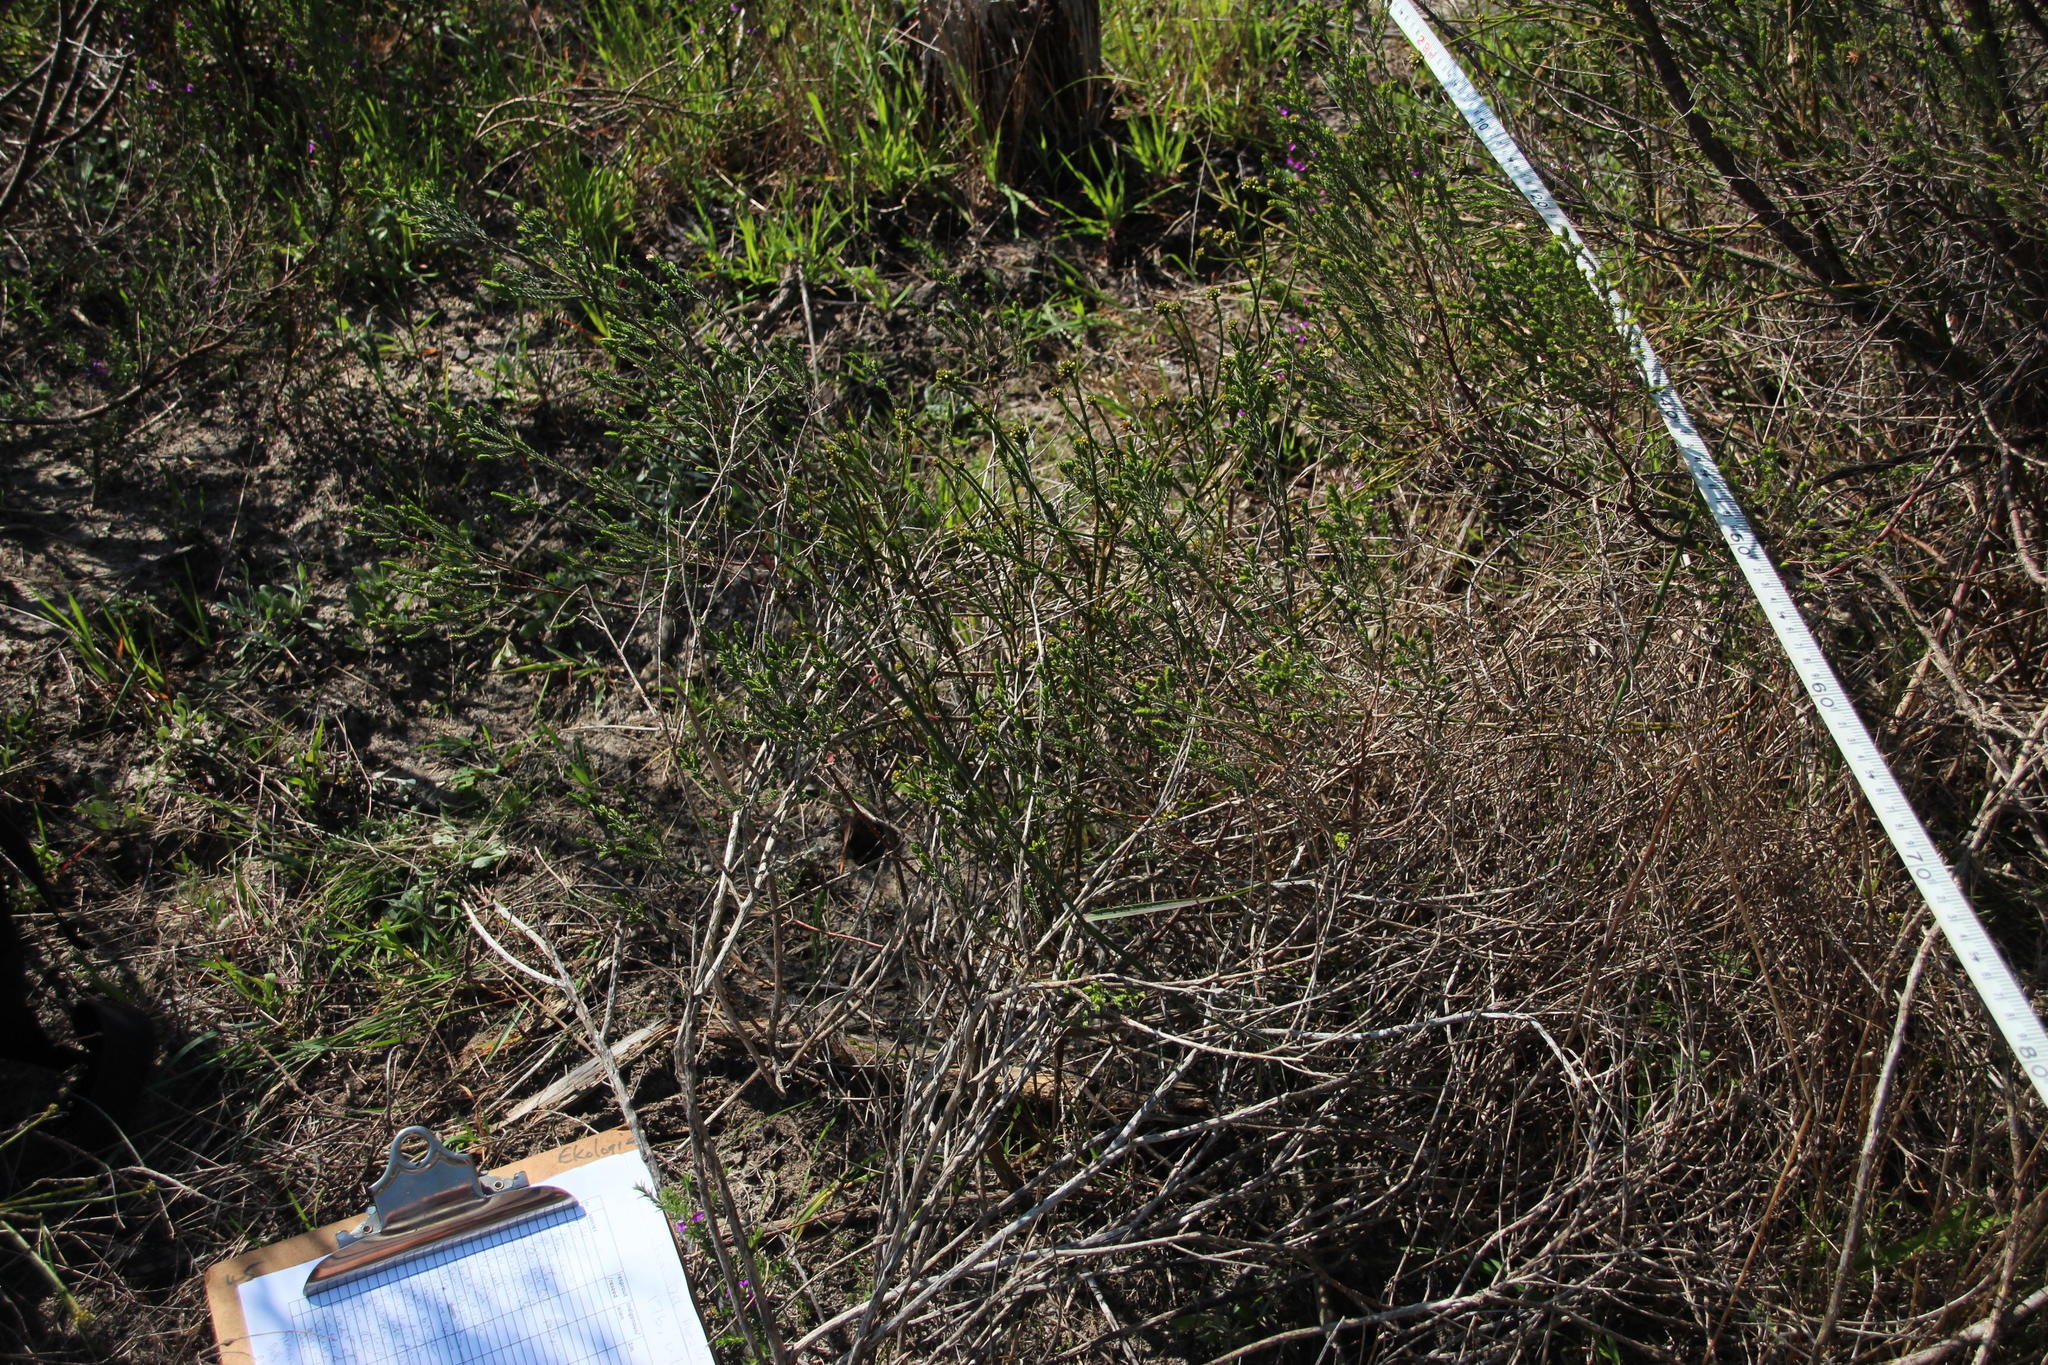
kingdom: Plantae
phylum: Tracheophyta
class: Magnoliopsida
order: Santalales
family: Thesiaceae
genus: Thesium
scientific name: Thesium spicatum
